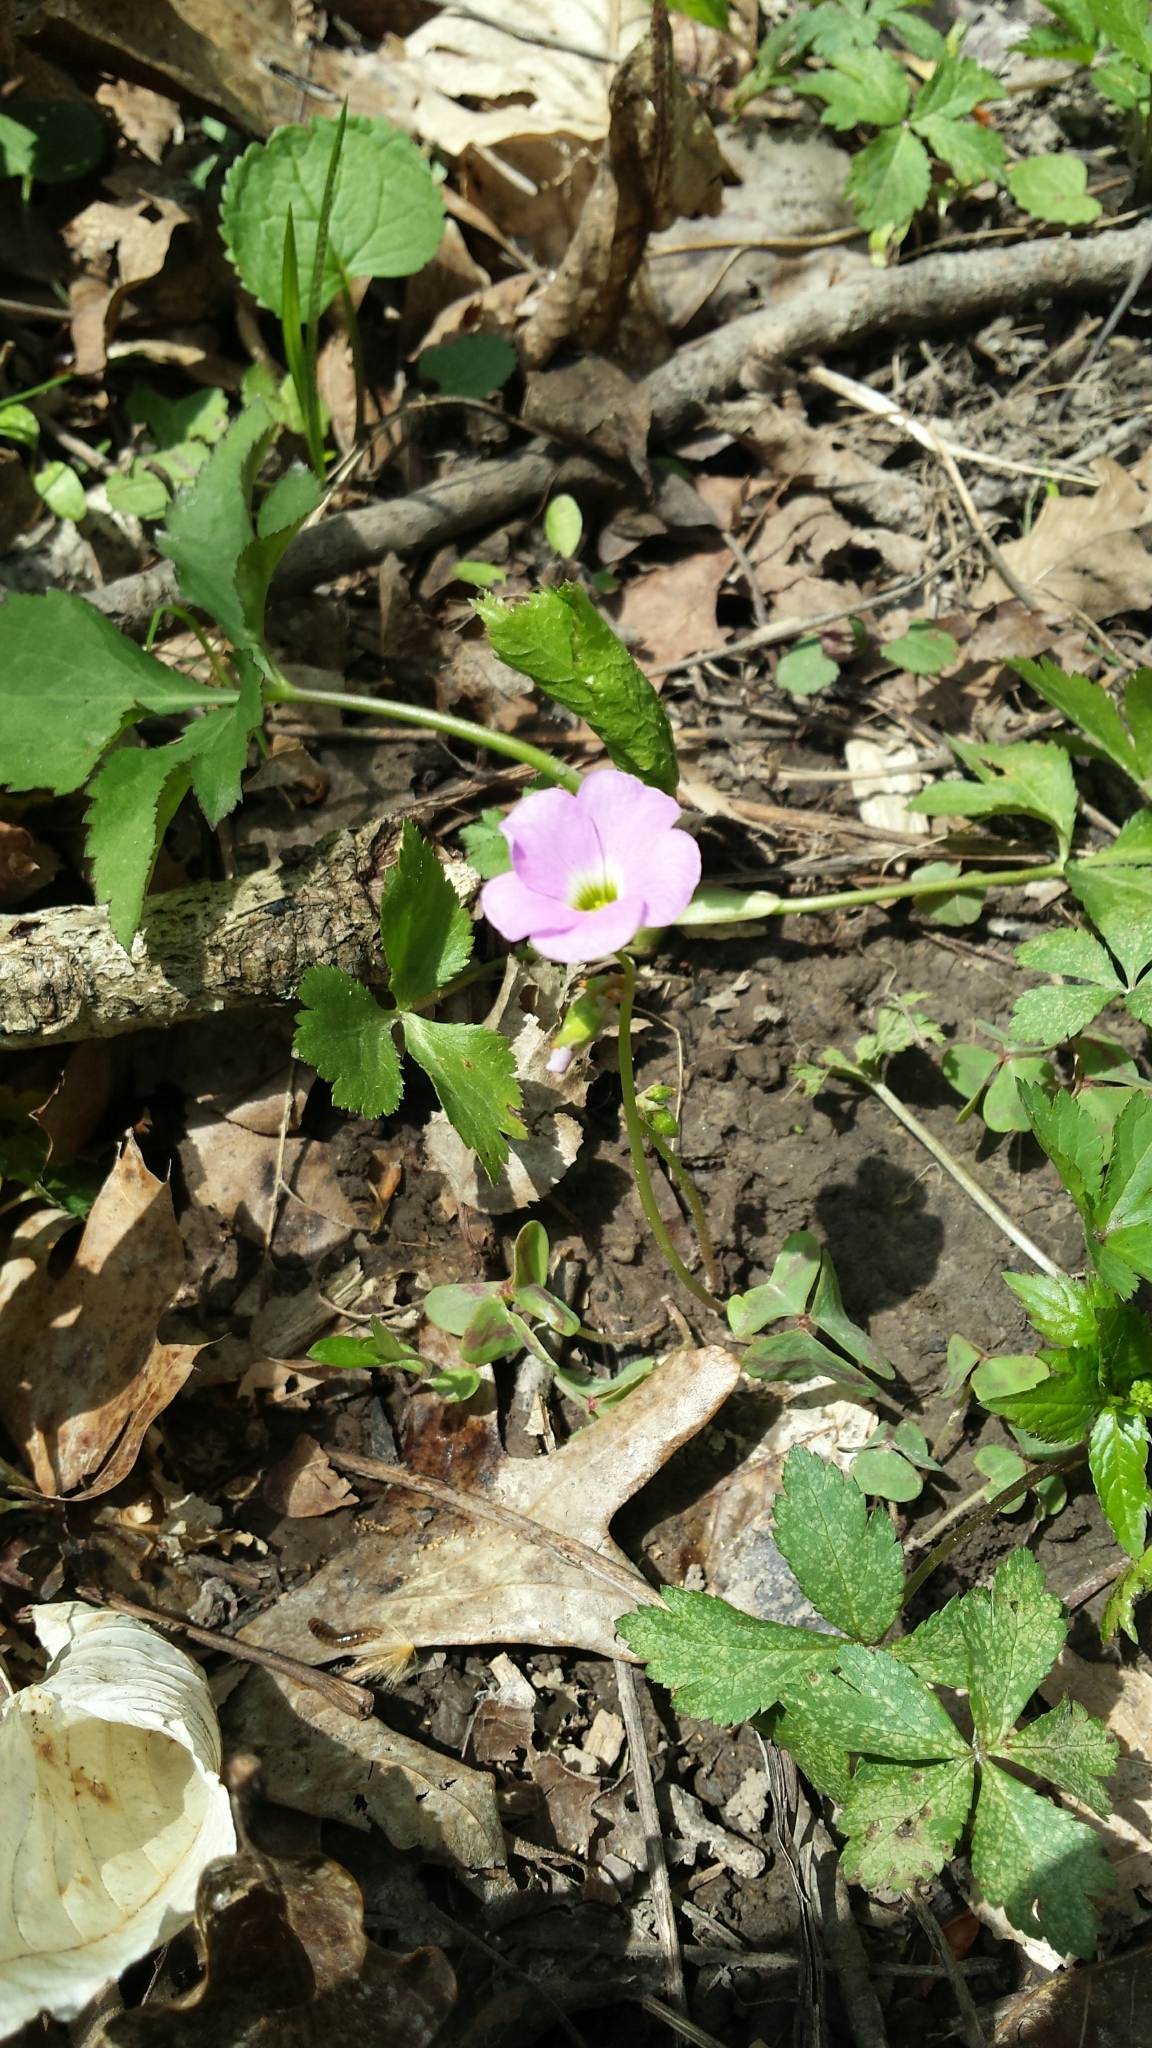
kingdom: Plantae
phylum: Tracheophyta
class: Magnoliopsida
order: Oxalidales
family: Oxalidaceae
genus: Oxalis
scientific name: Oxalis violacea
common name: Violet wood-sorrel
